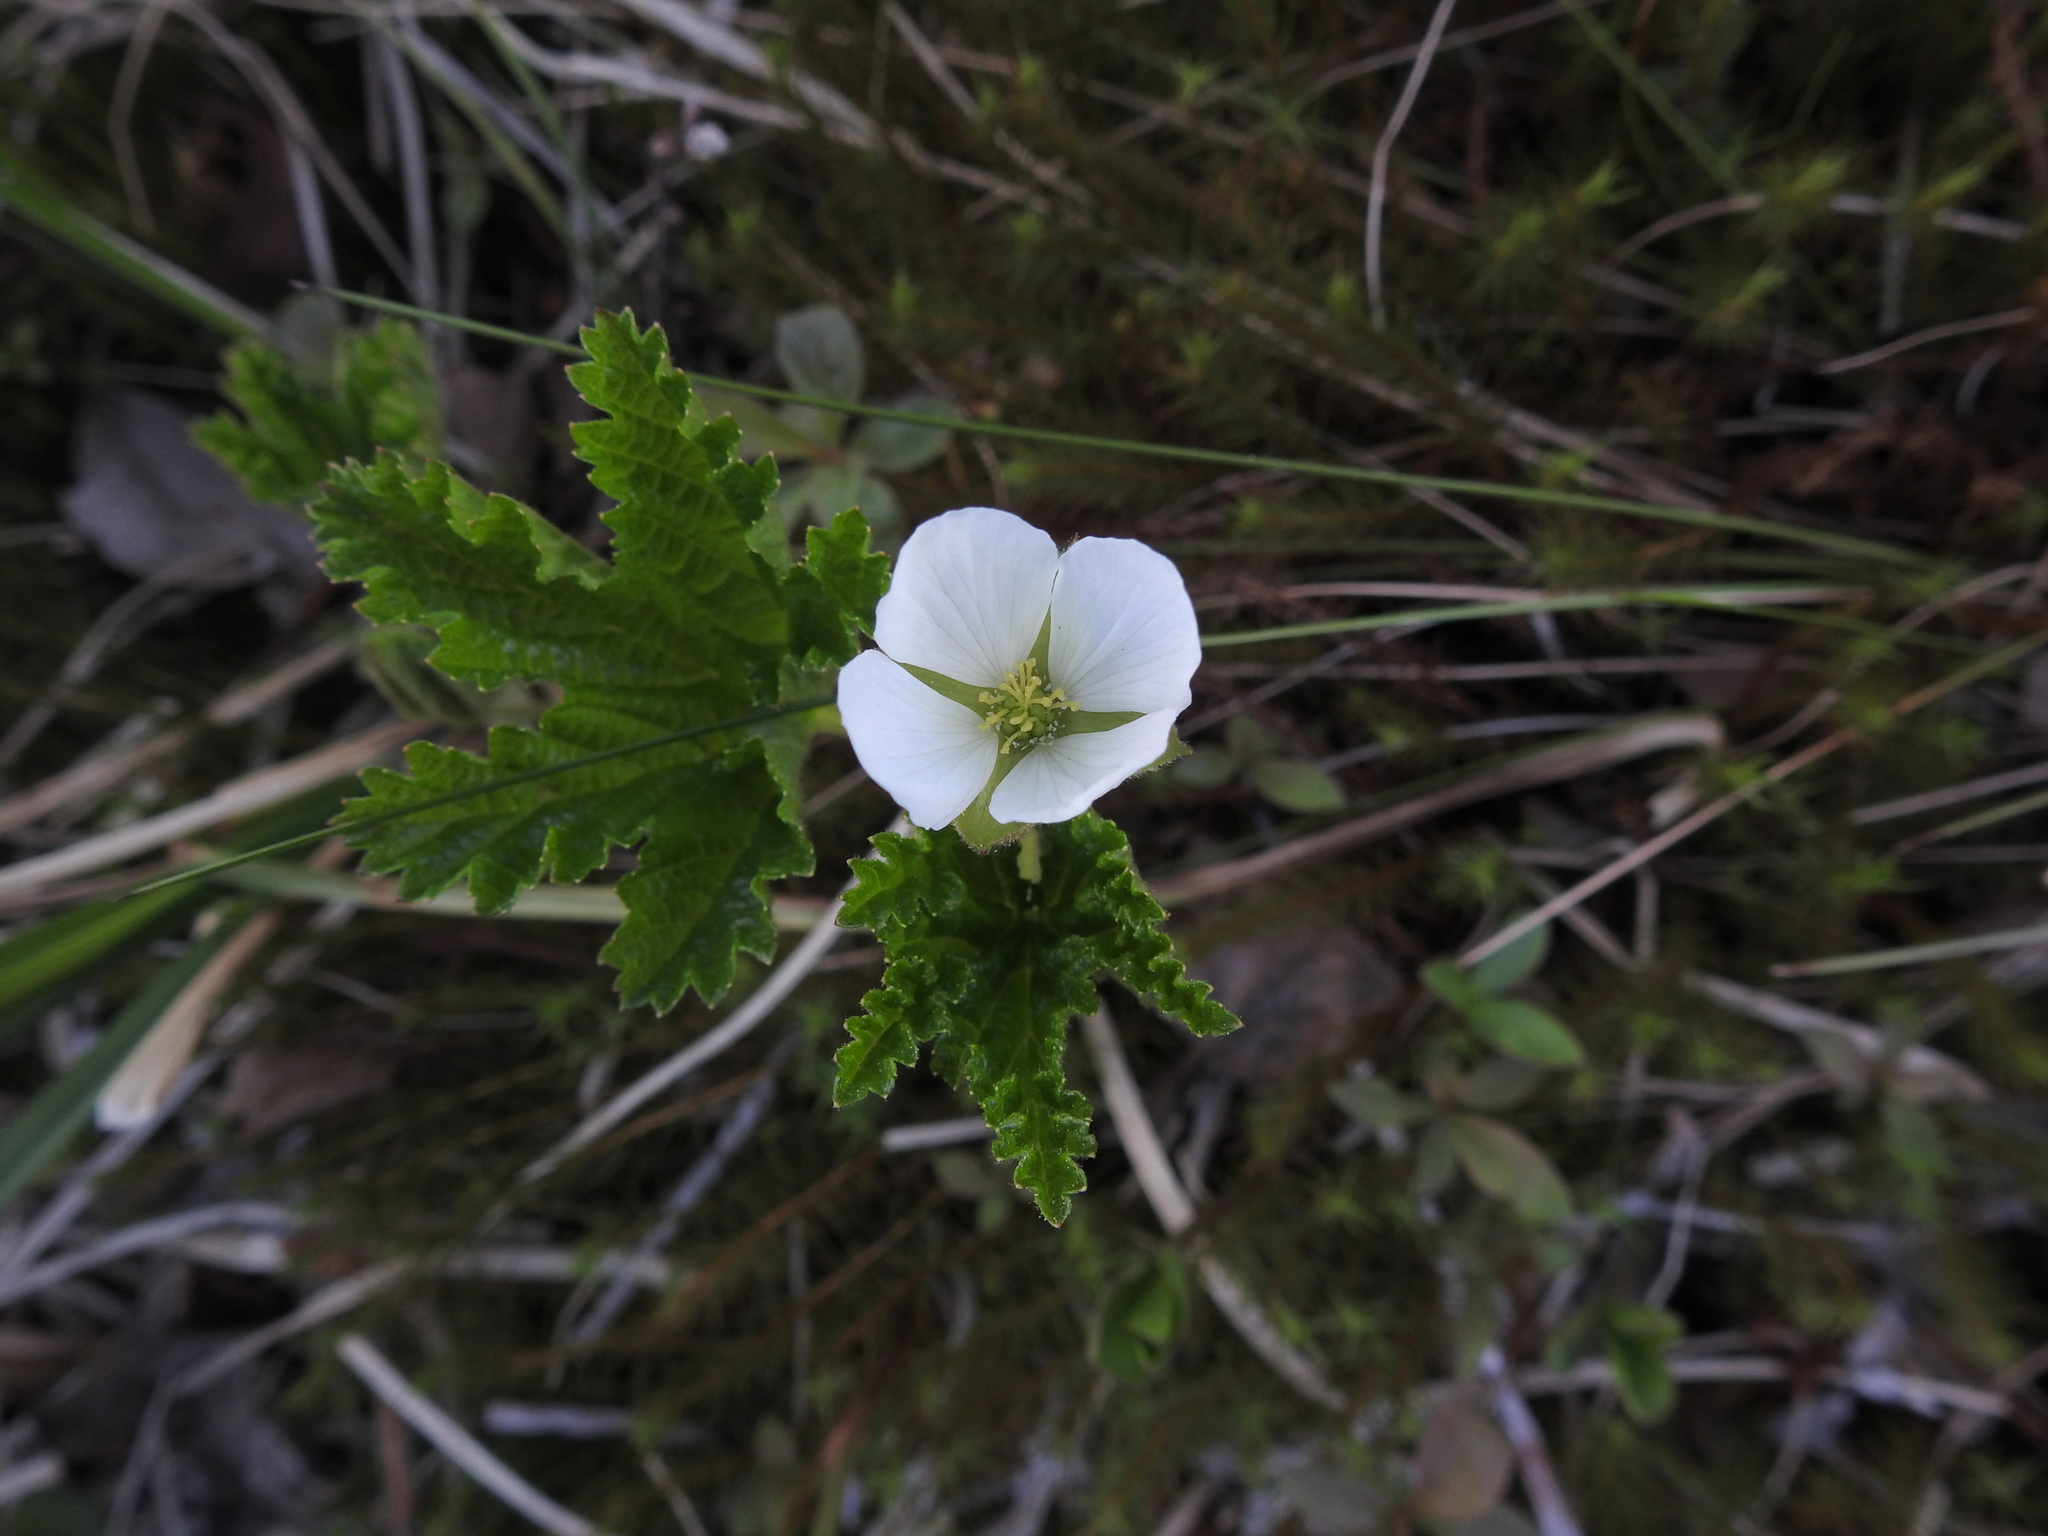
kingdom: Plantae
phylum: Tracheophyta
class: Magnoliopsida
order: Rosales
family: Rosaceae
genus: Rubus
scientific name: Rubus chamaemorus
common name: Cloudberry
